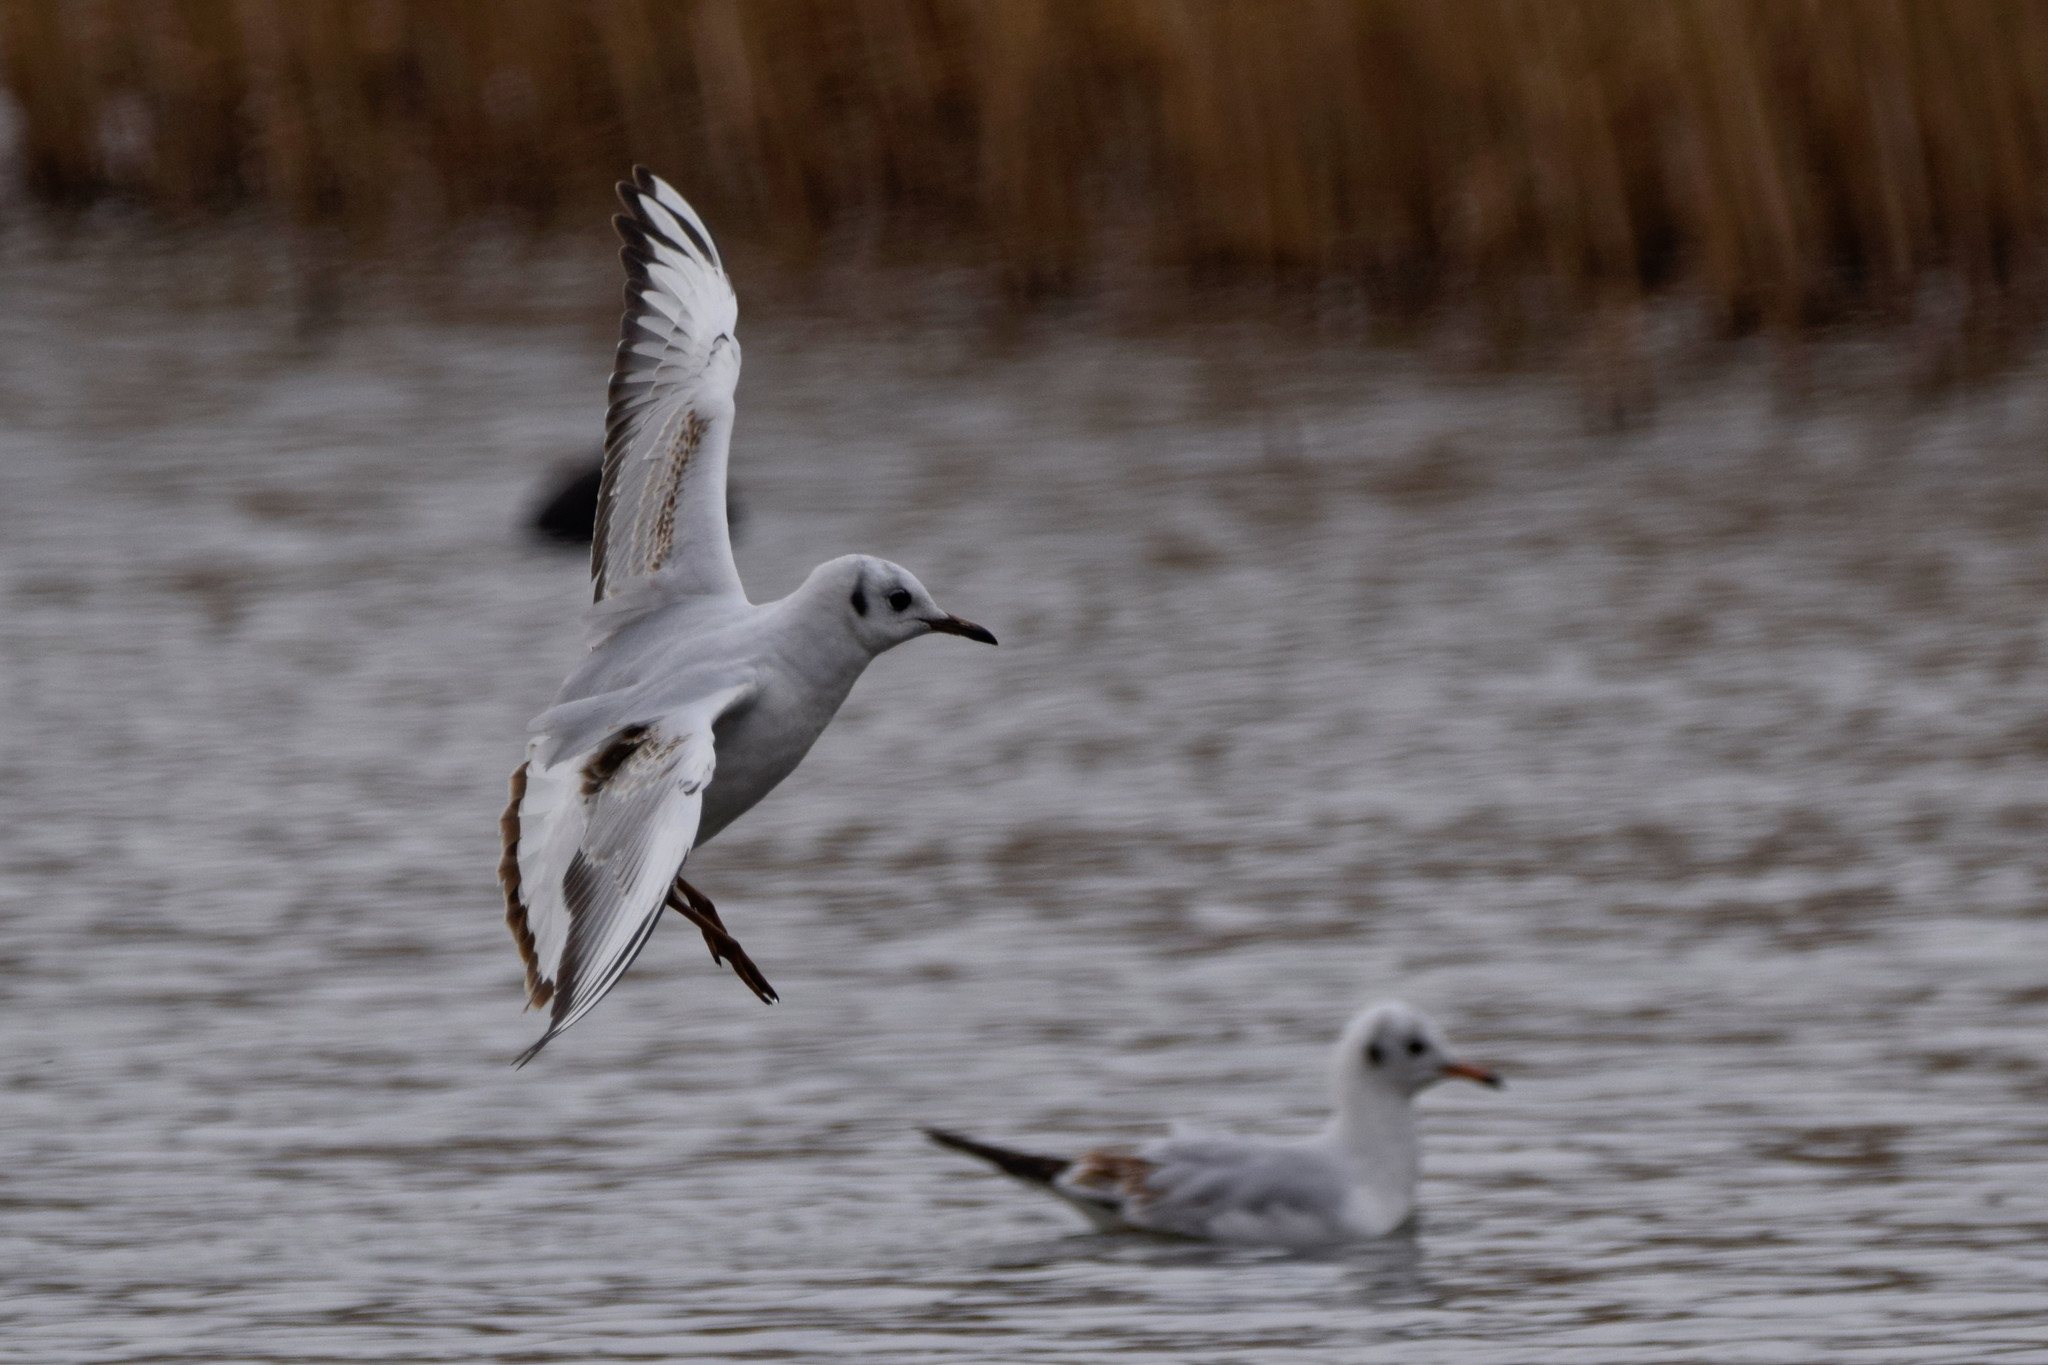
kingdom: Animalia
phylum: Chordata
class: Aves
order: Charadriiformes
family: Laridae
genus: Chroicocephalus
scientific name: Chroicocephalus ridibundus
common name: Black-headed gull
